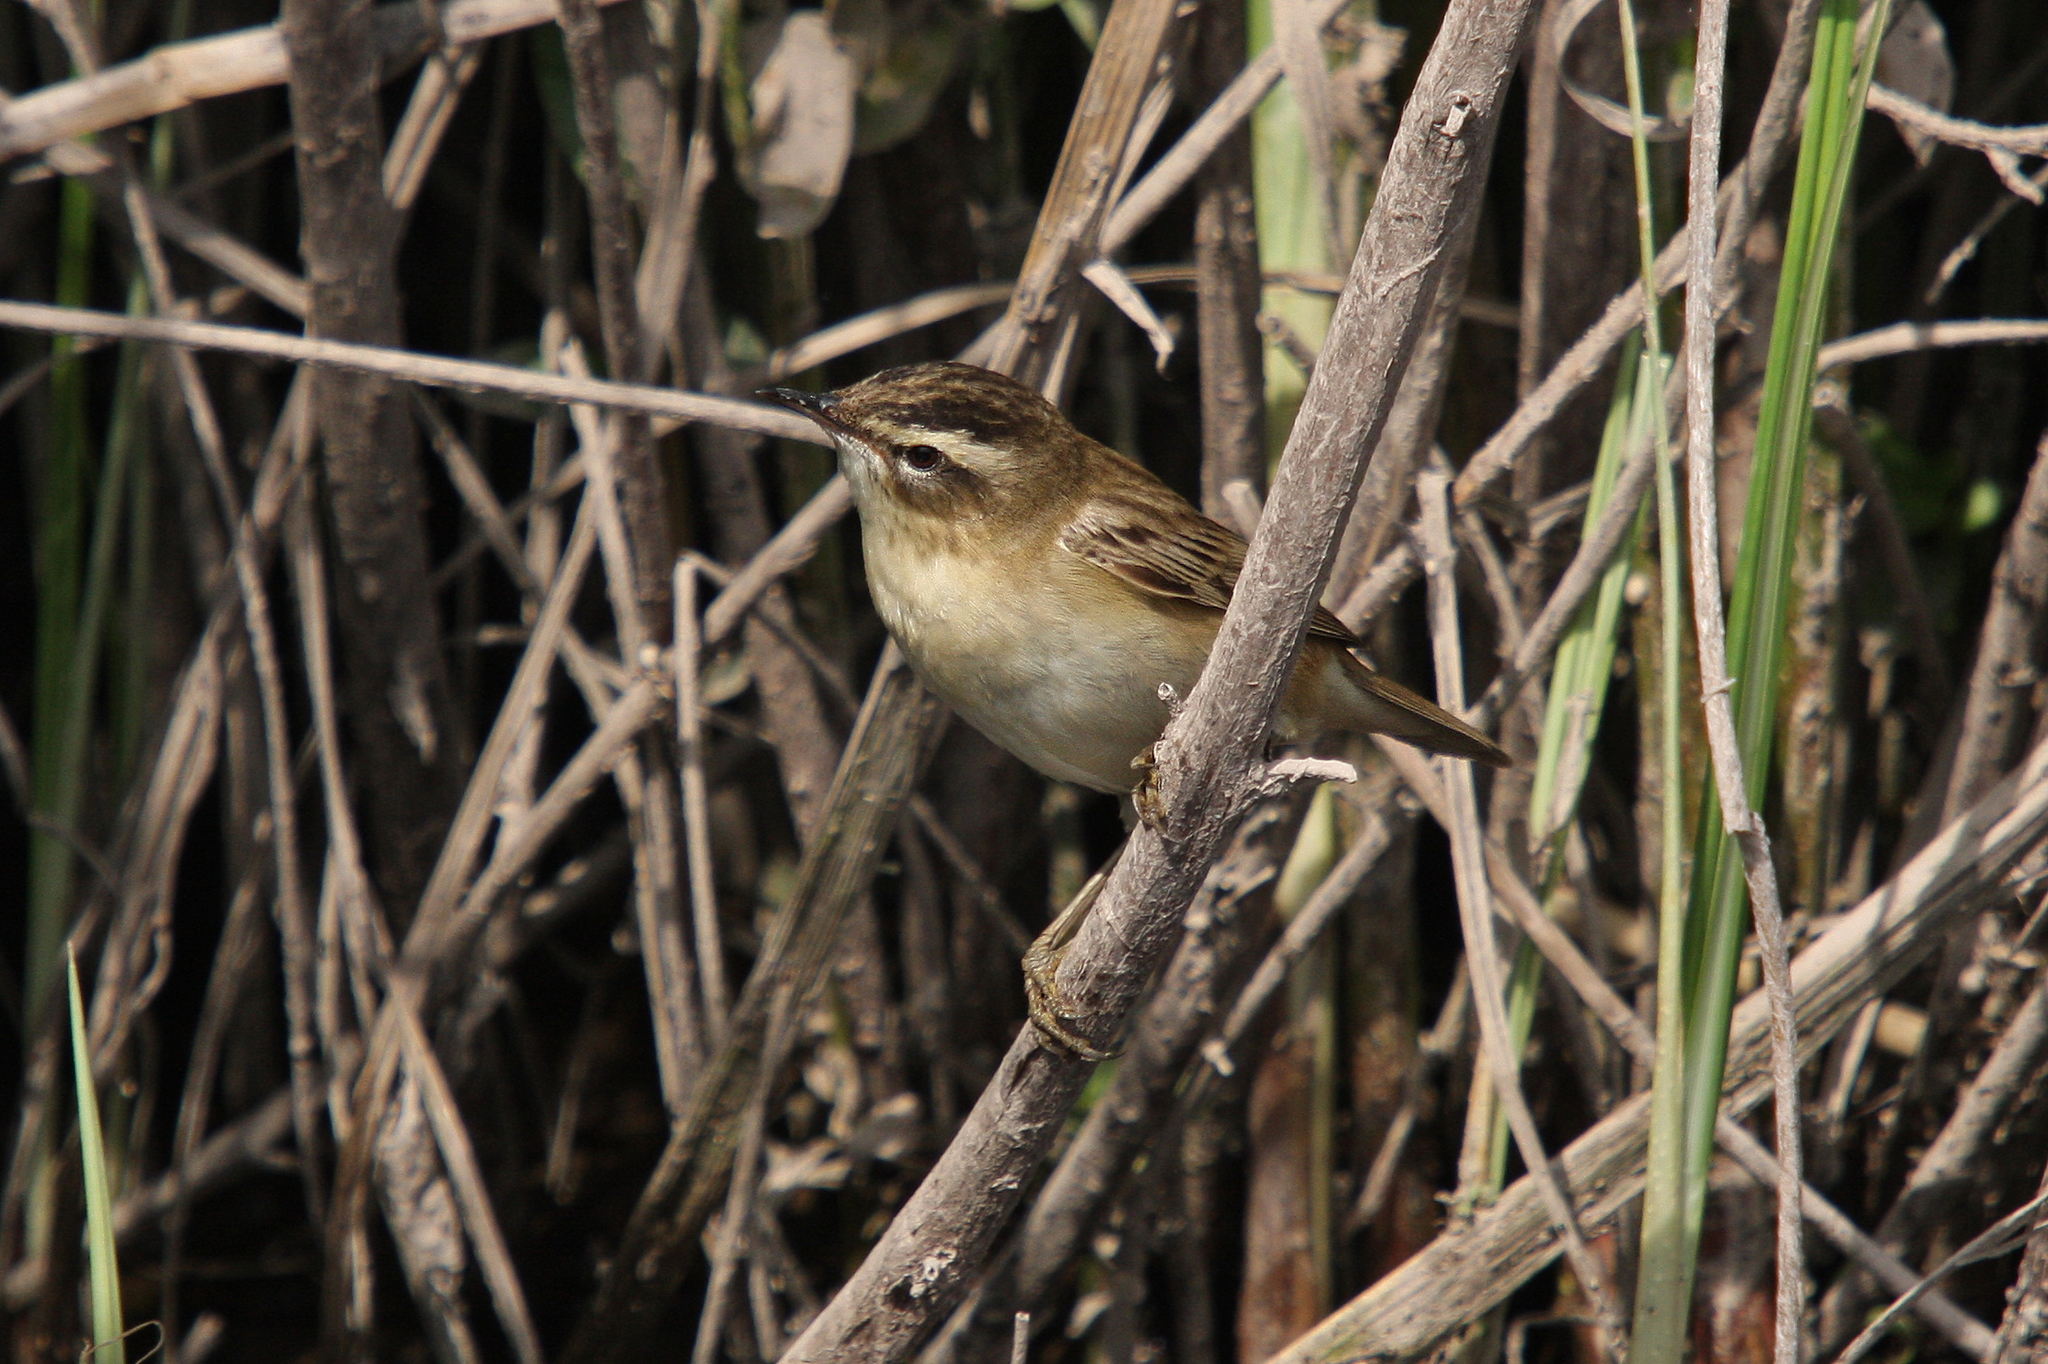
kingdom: Animalia
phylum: Chordata
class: Aves
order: Passeriformes
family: Acrocephalidae
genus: Acrocephalus
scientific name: Acrocephalus schoenobaenus
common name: Sedge warbler
